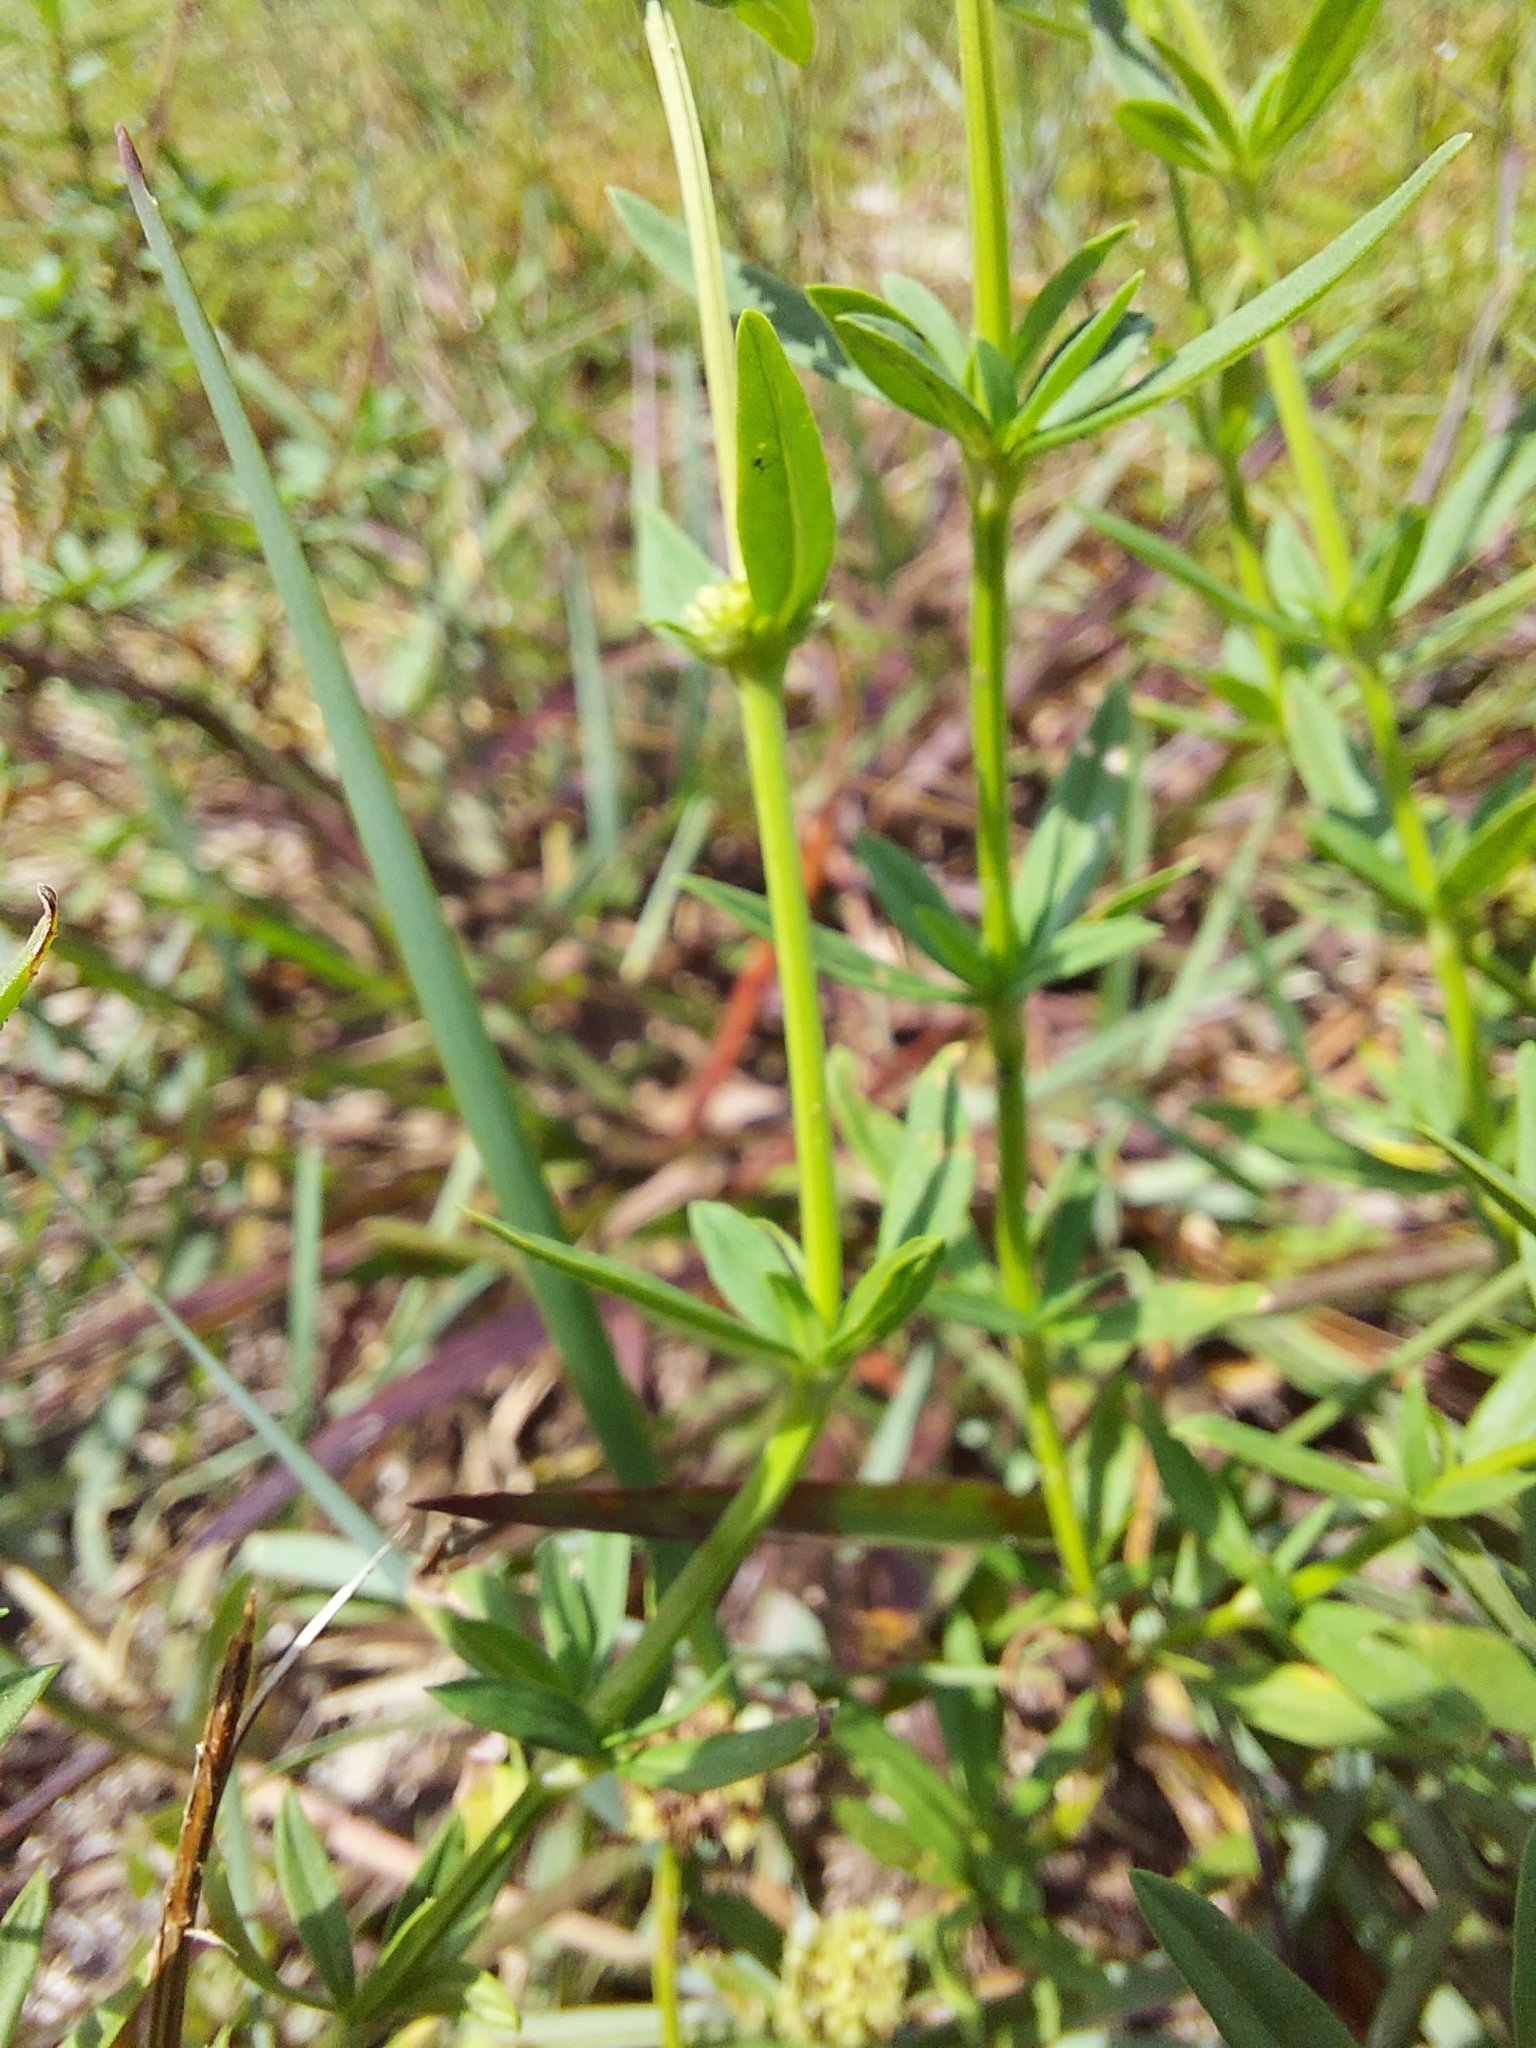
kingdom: Plantae
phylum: Tracheophyta
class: Magnoliopsida
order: Gentianales
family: Rubiaceae
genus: Spermacoce
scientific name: Spermacoce verticillata
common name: Shrubby false buttonweed
